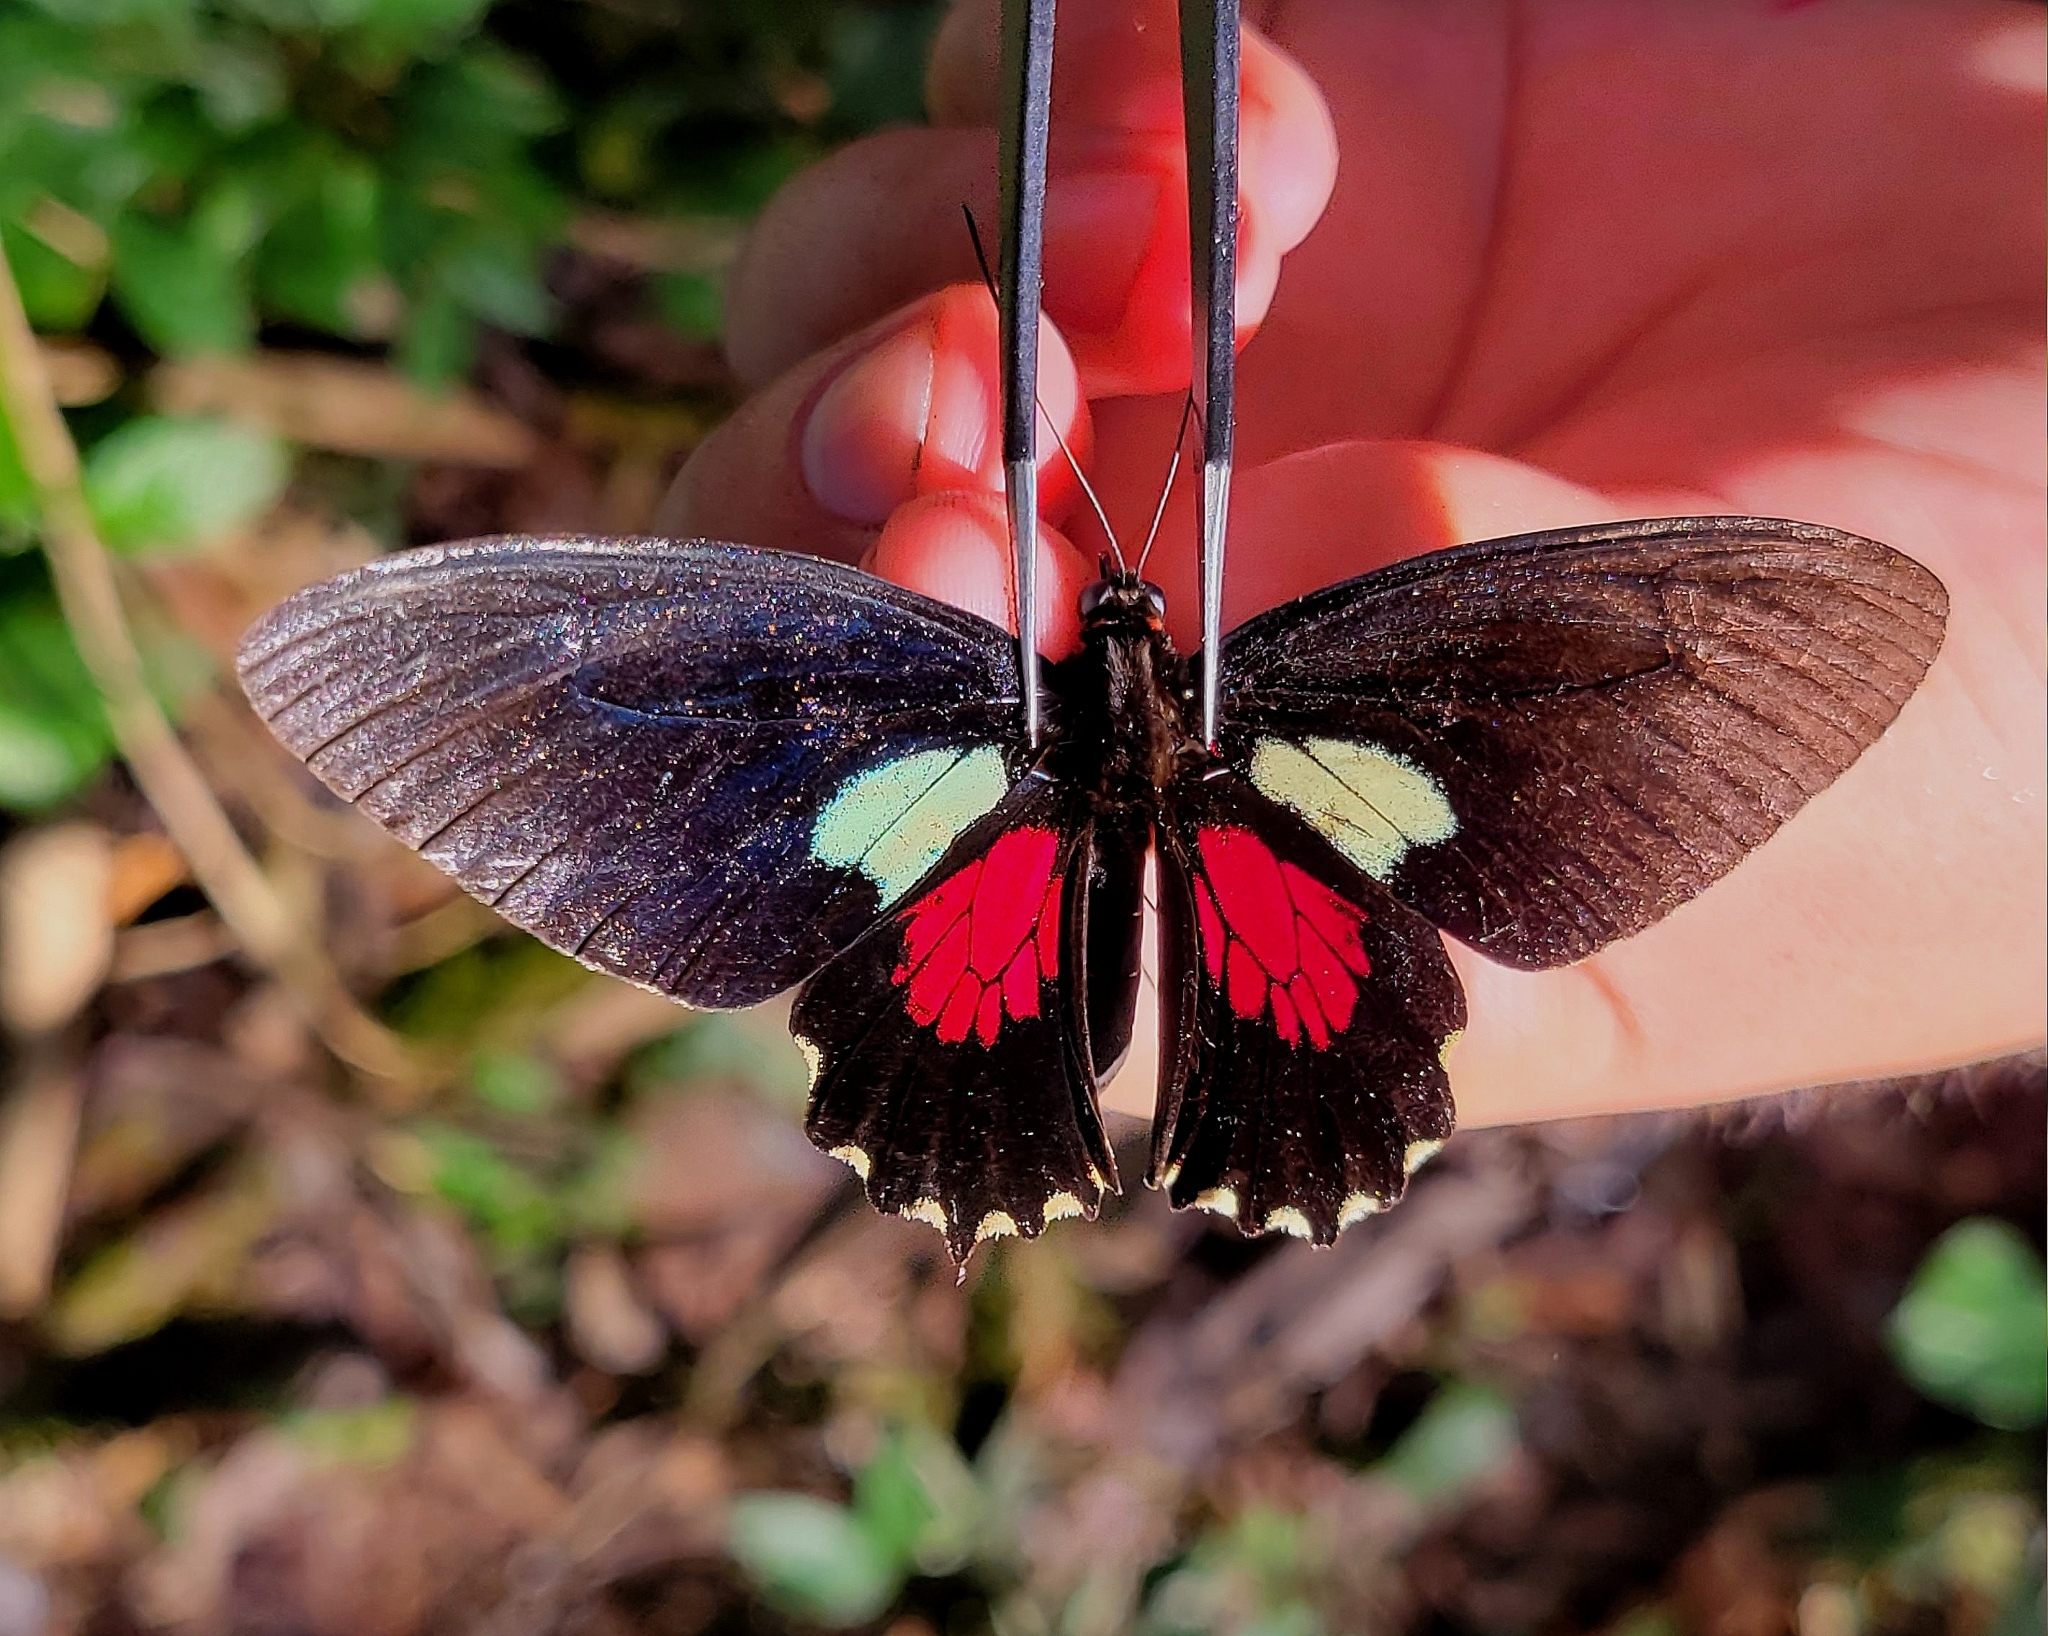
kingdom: Animalia
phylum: Arthropoda
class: Insecta
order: Lepidoptera
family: Papilionidae
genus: Parides
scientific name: Parides aeneas
